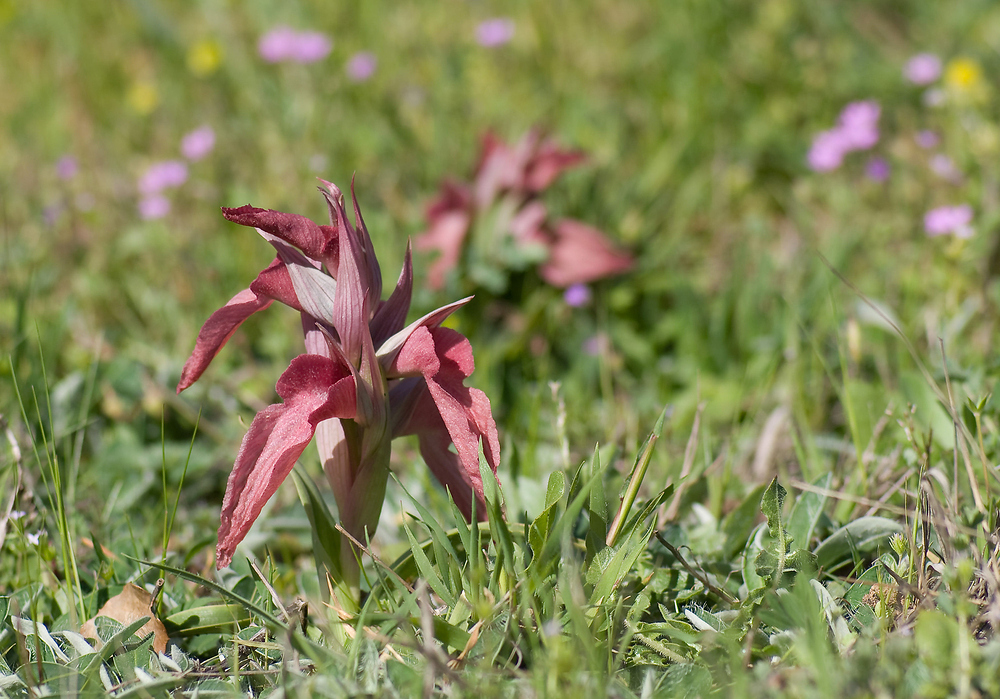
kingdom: Plantae
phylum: Tracheophyta
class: Liliopsida
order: Asparagales
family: Orchidaceae
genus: Serapias
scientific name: Serapias neglecta
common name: Neglected serapias
